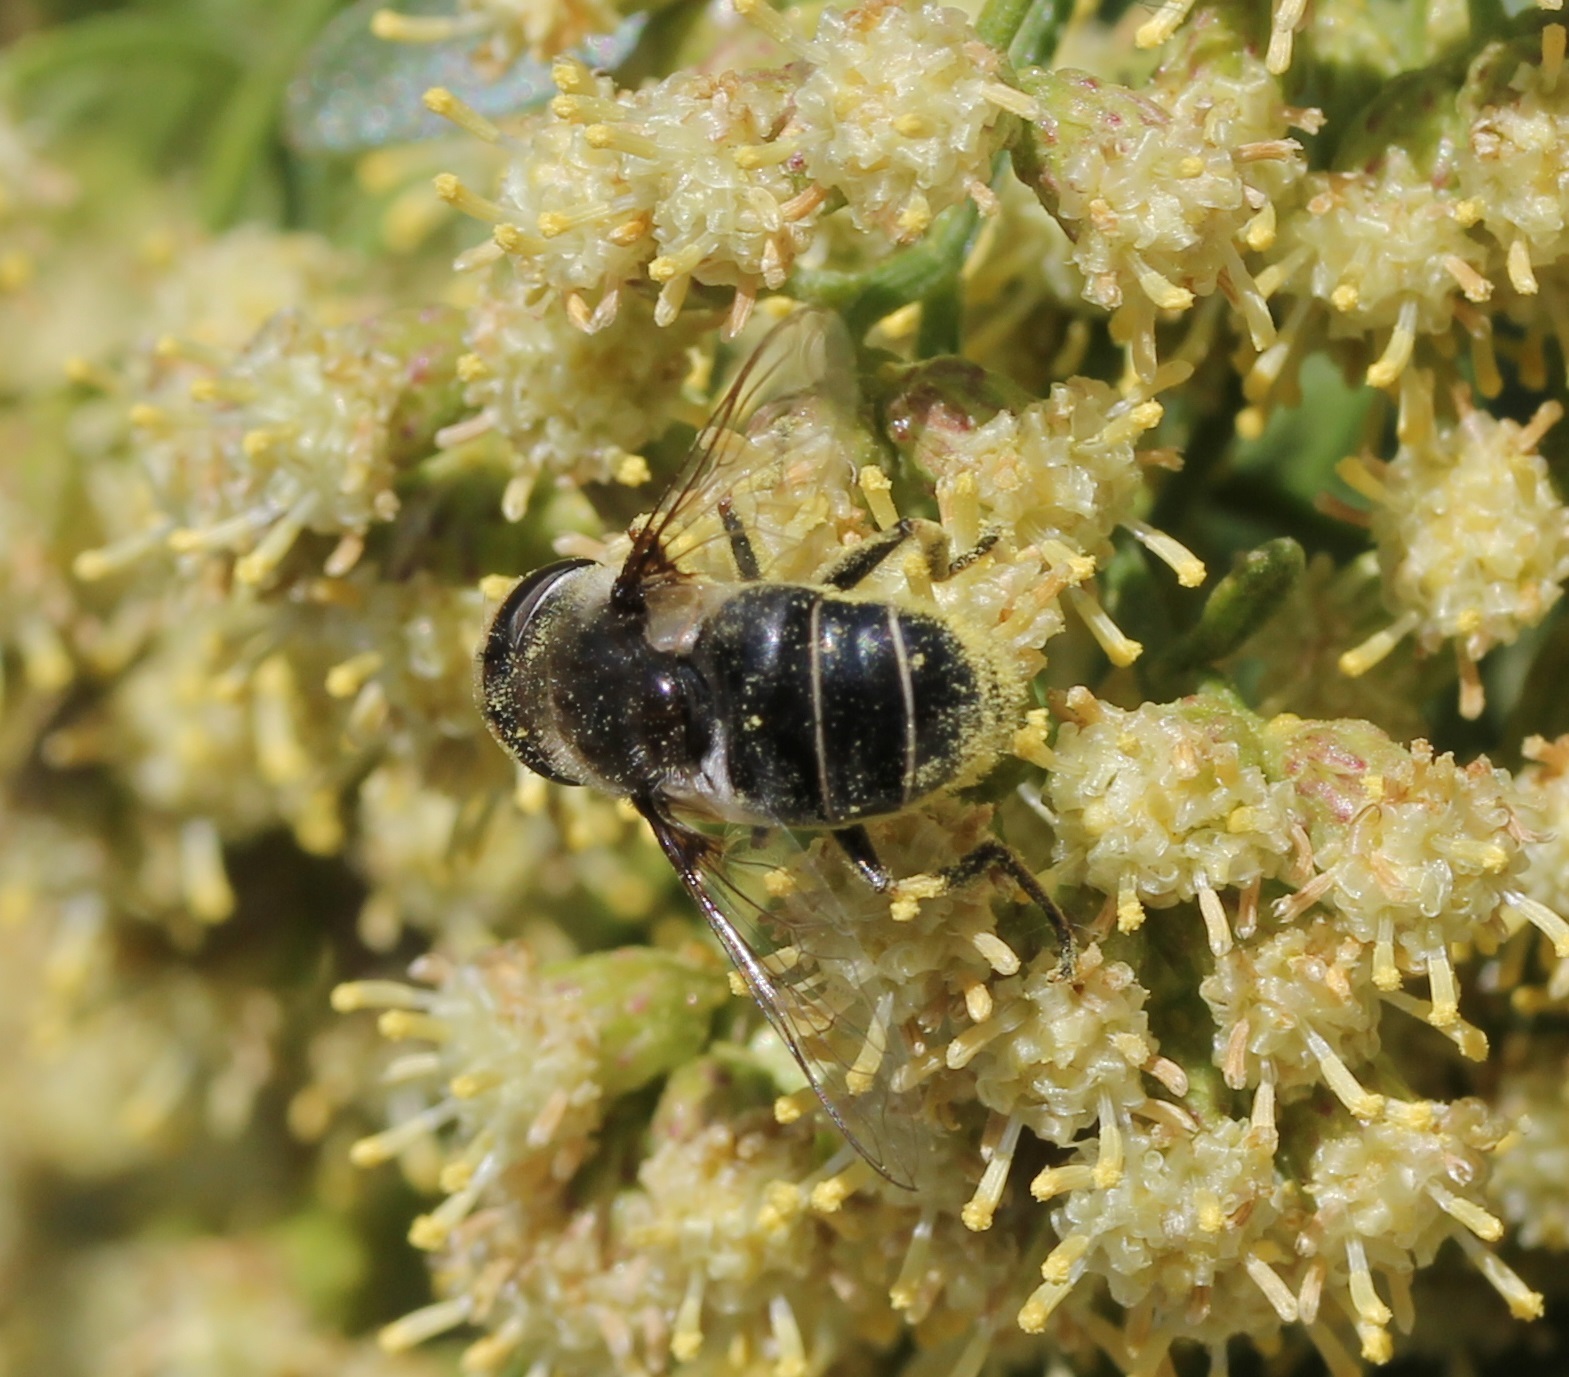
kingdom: Animalia
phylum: Arthropoda
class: Insecta
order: Diptera
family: Syrphidae
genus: Eristalis
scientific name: Eristalis dimidiata
